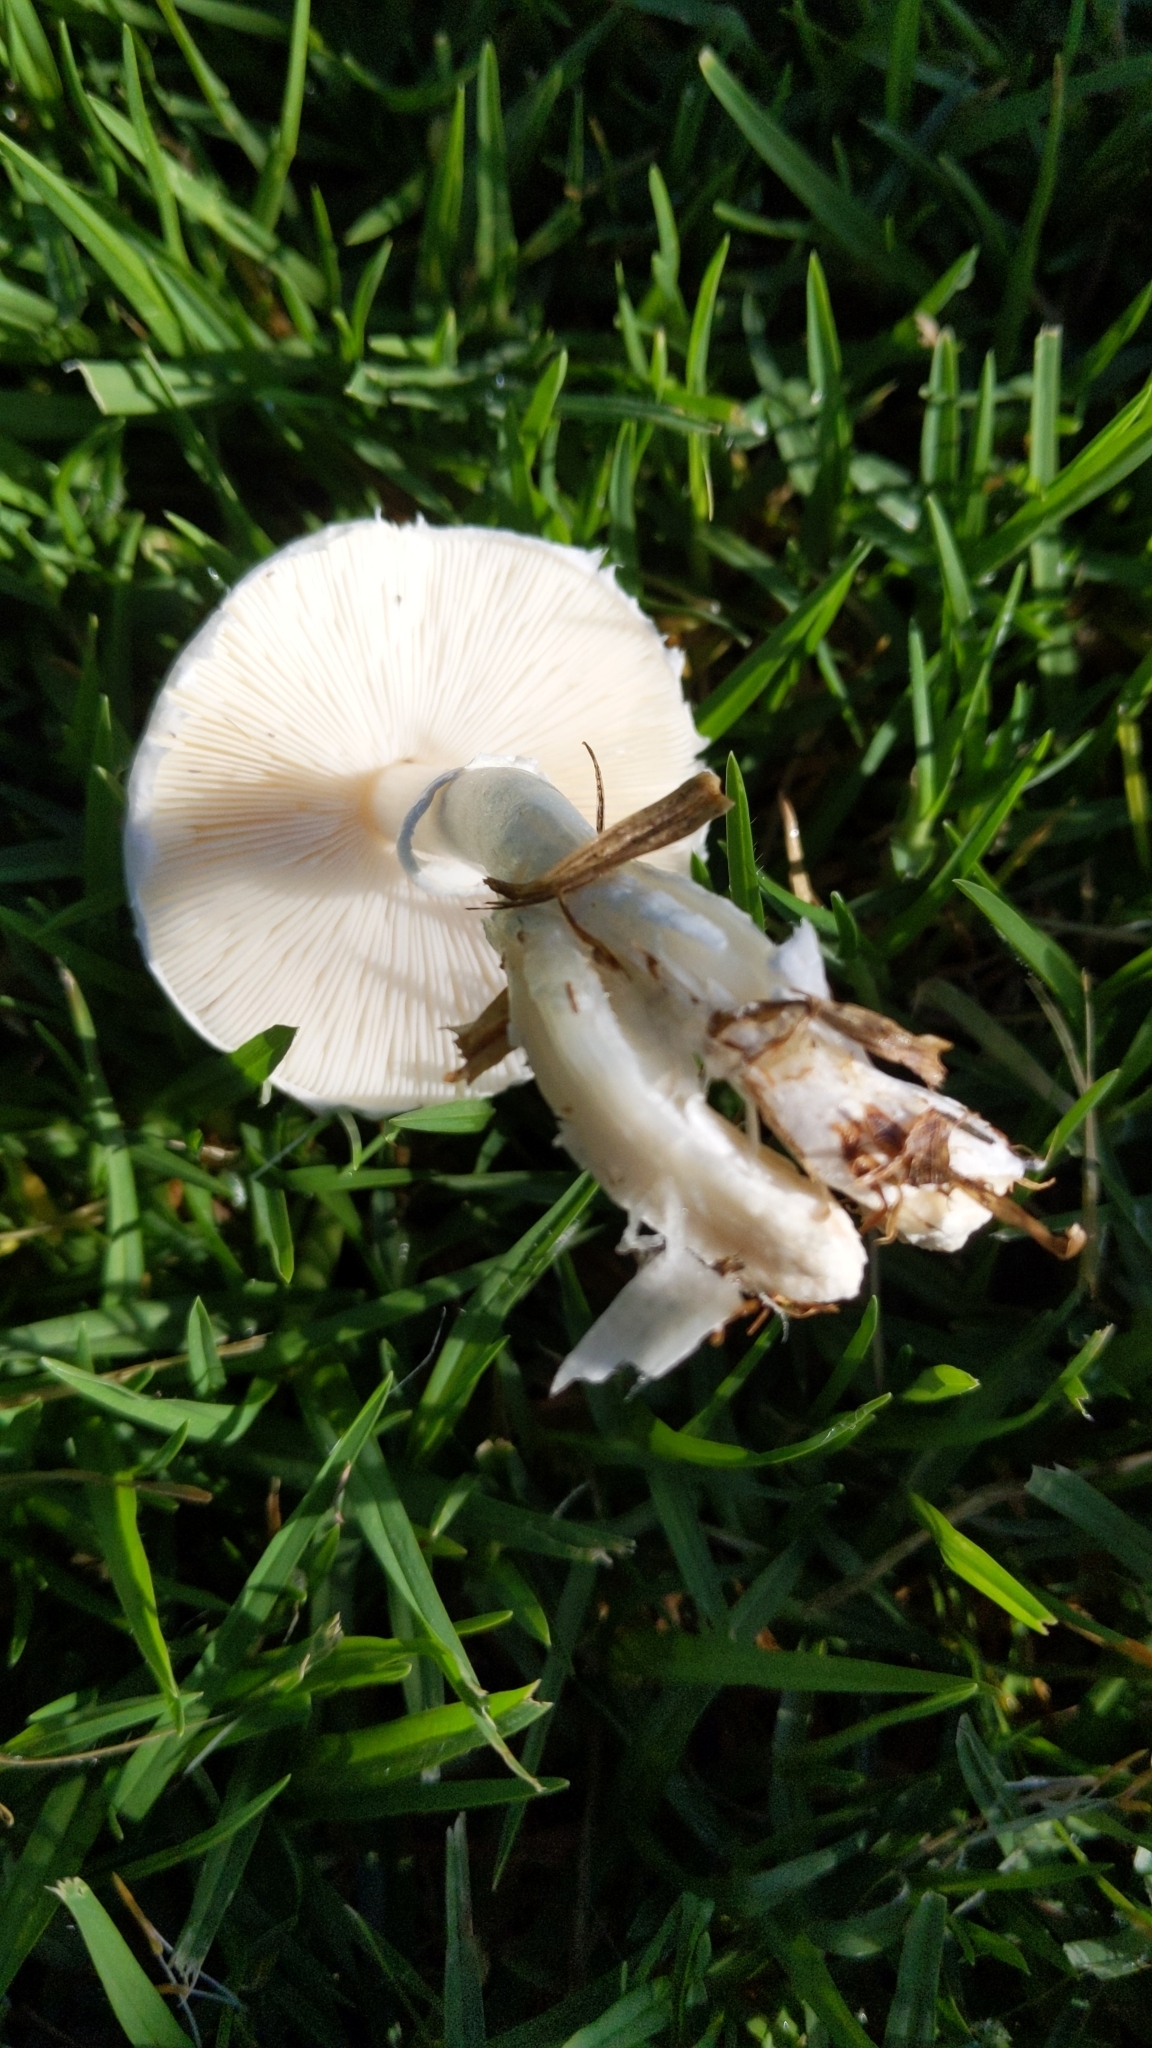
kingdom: Fungi
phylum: Basidiomycota
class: Agaricomycetes
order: Agaricales
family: Agaricaceae
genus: Leucoagaricus
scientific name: Leucoagaricus leucothites
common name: White dapperling
